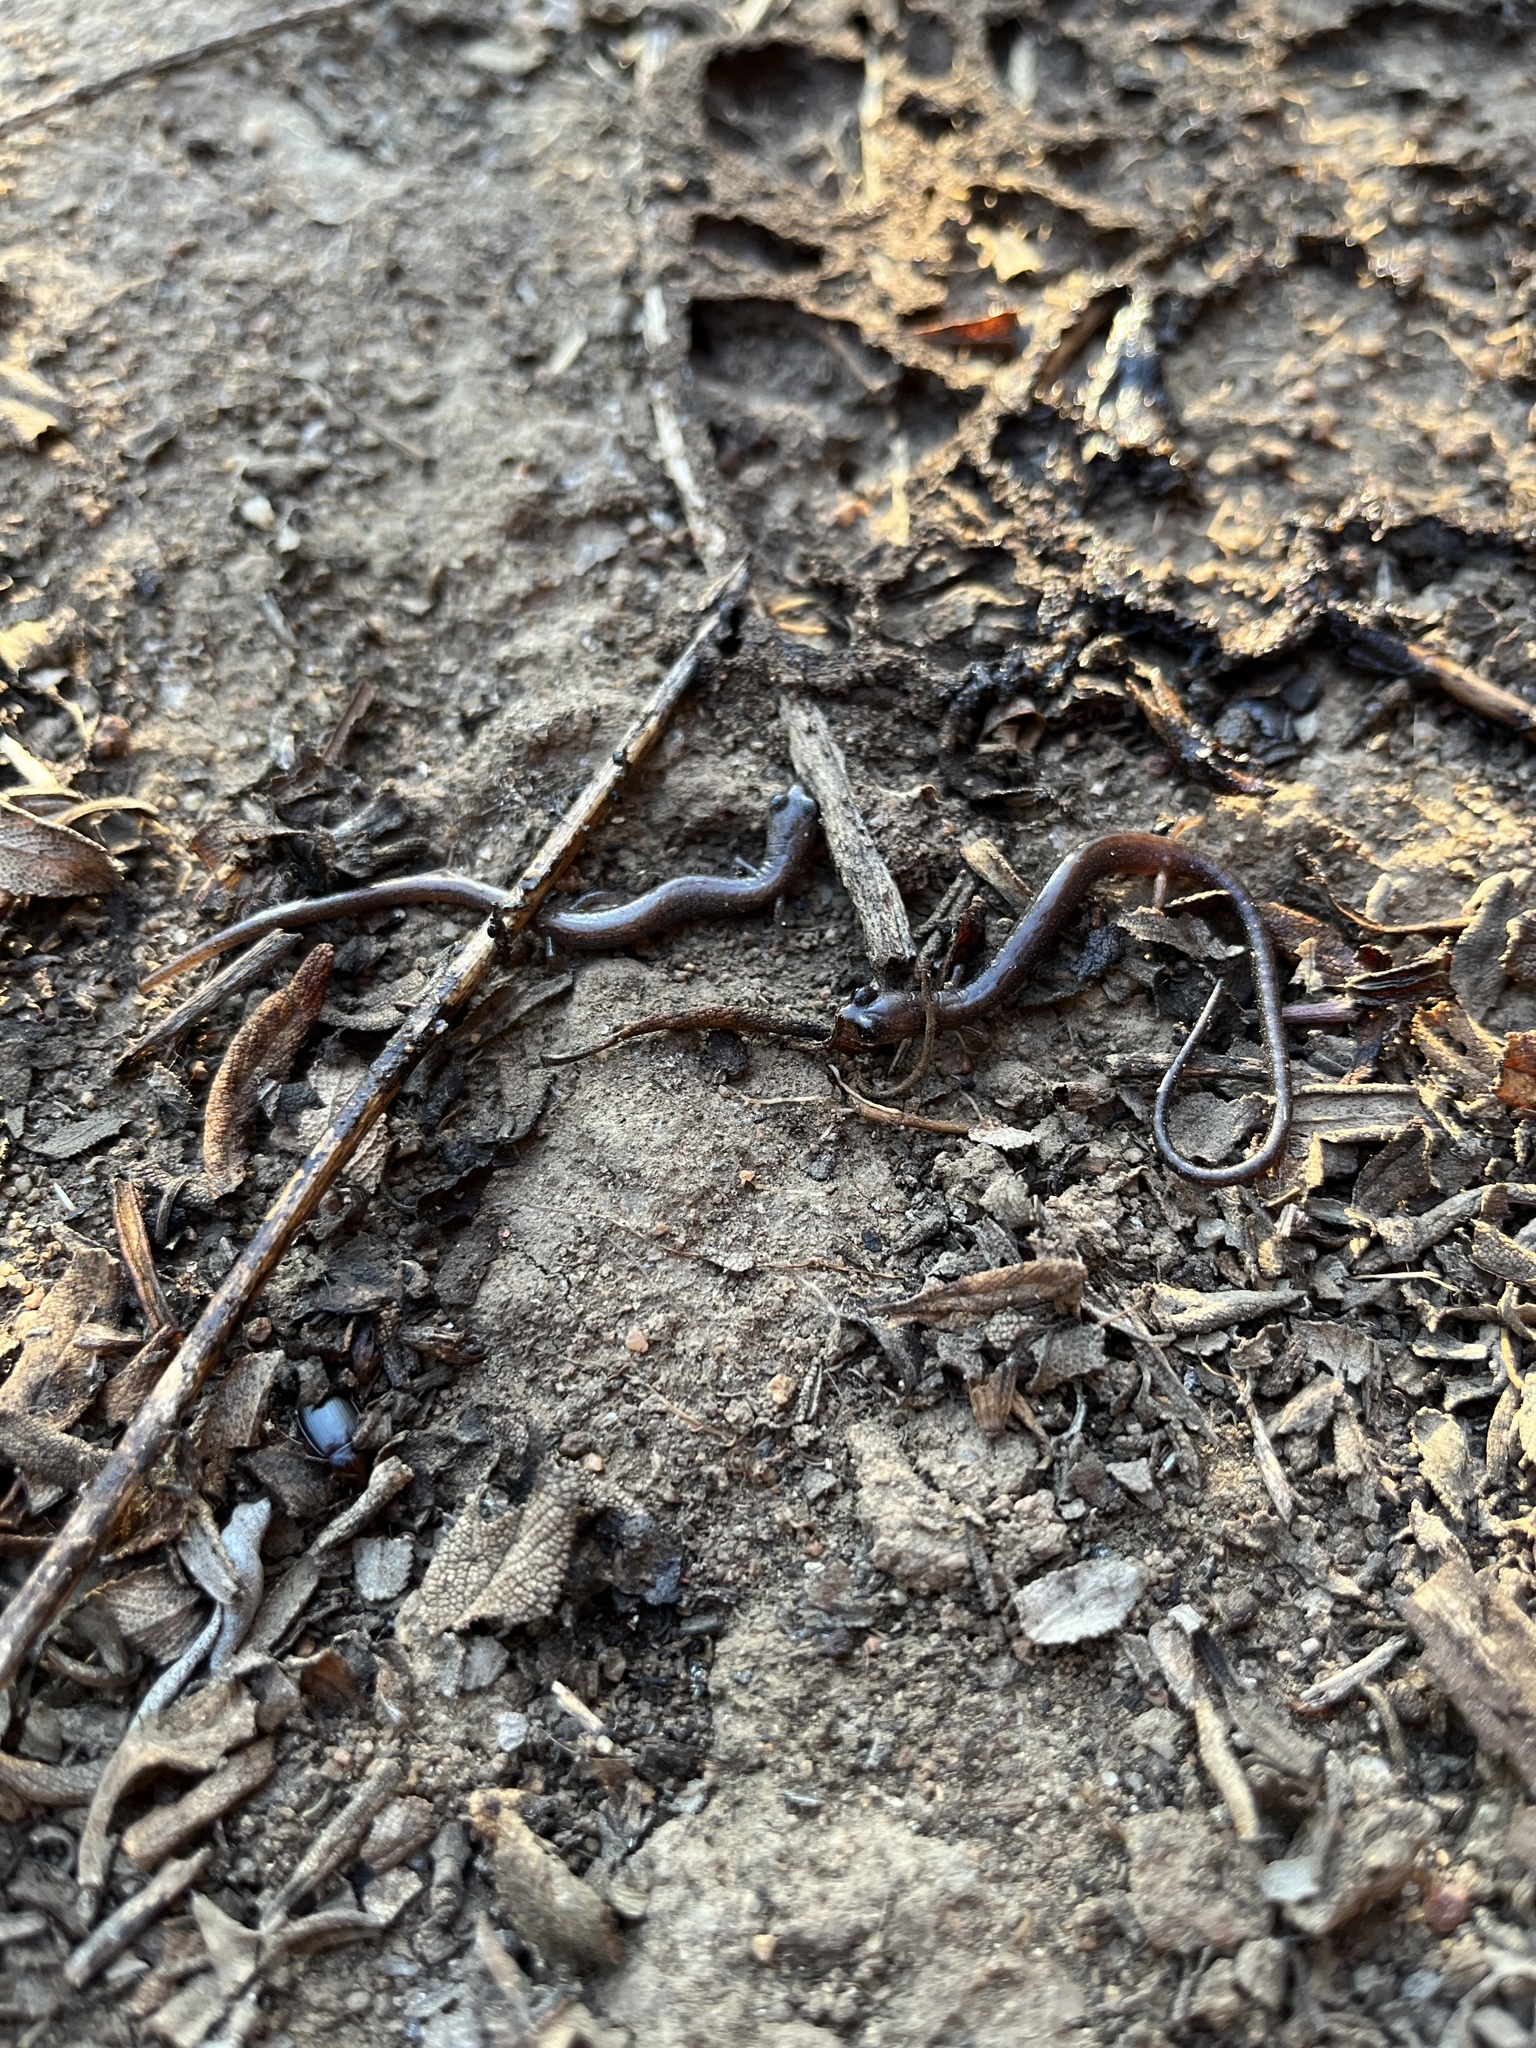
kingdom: Animalia
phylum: Chordata
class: Amphibia
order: Caudata
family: Plethodontidae
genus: Batrachoseps
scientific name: Batrachoseps major
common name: Garden slender salamander
